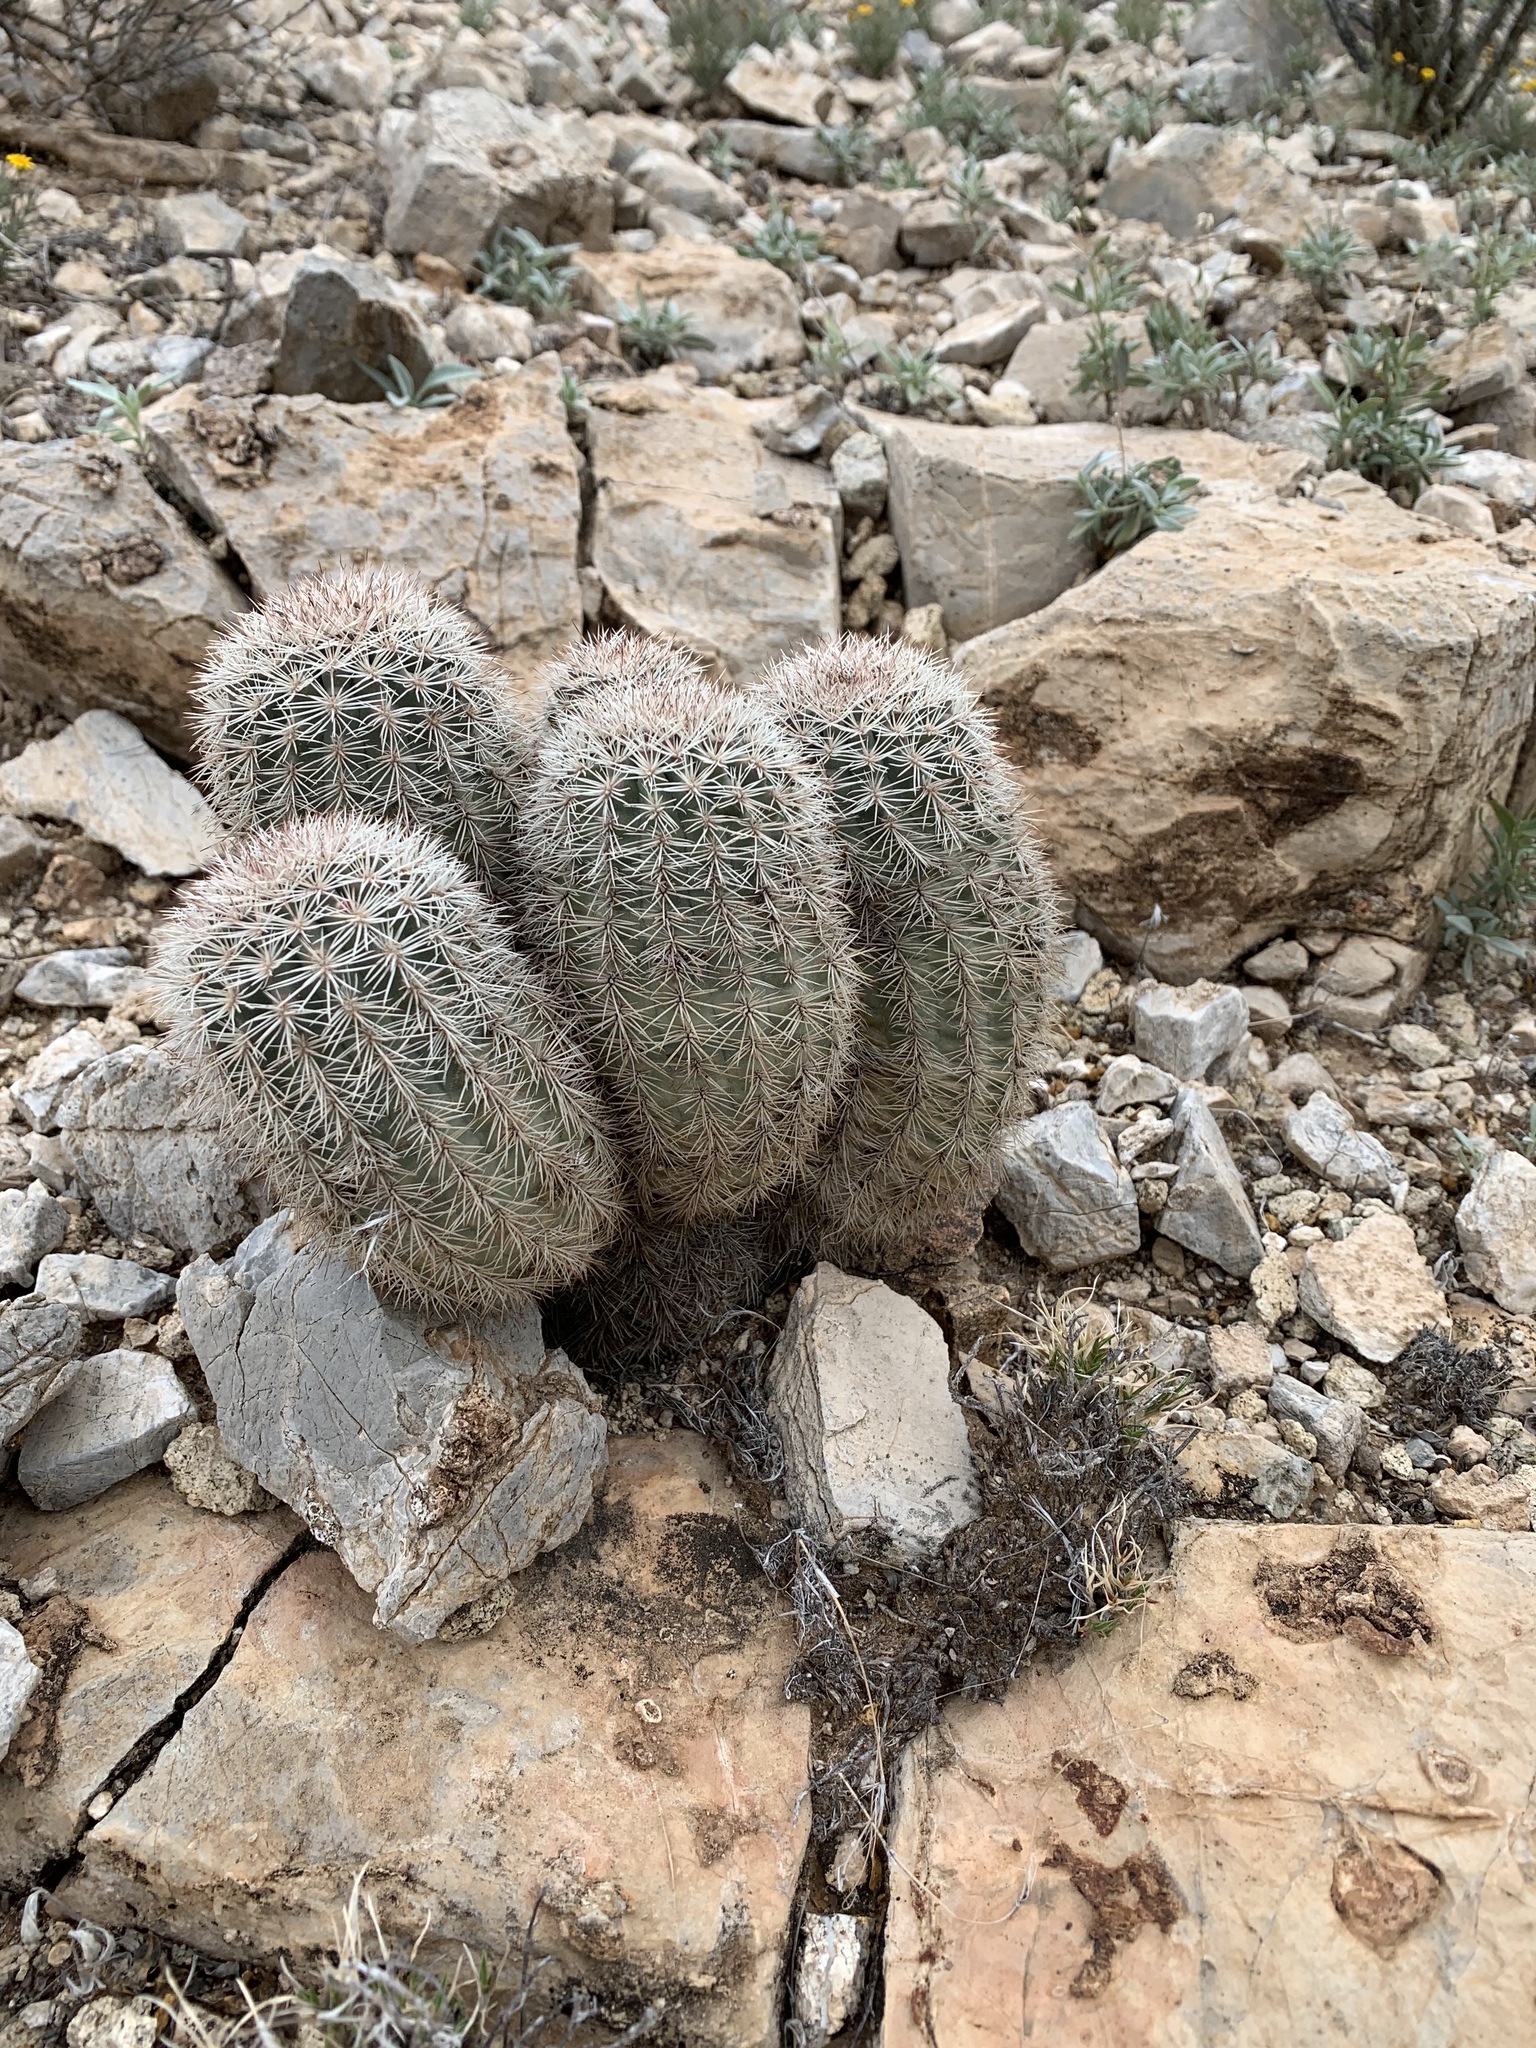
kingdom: Plantae
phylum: Tracheophyta
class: Magnoliopsida
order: Caryophyllales
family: Cactaceae
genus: Echinocereus
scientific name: Echinocereus dasyacanthus
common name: Spiny hedgehog cactus
